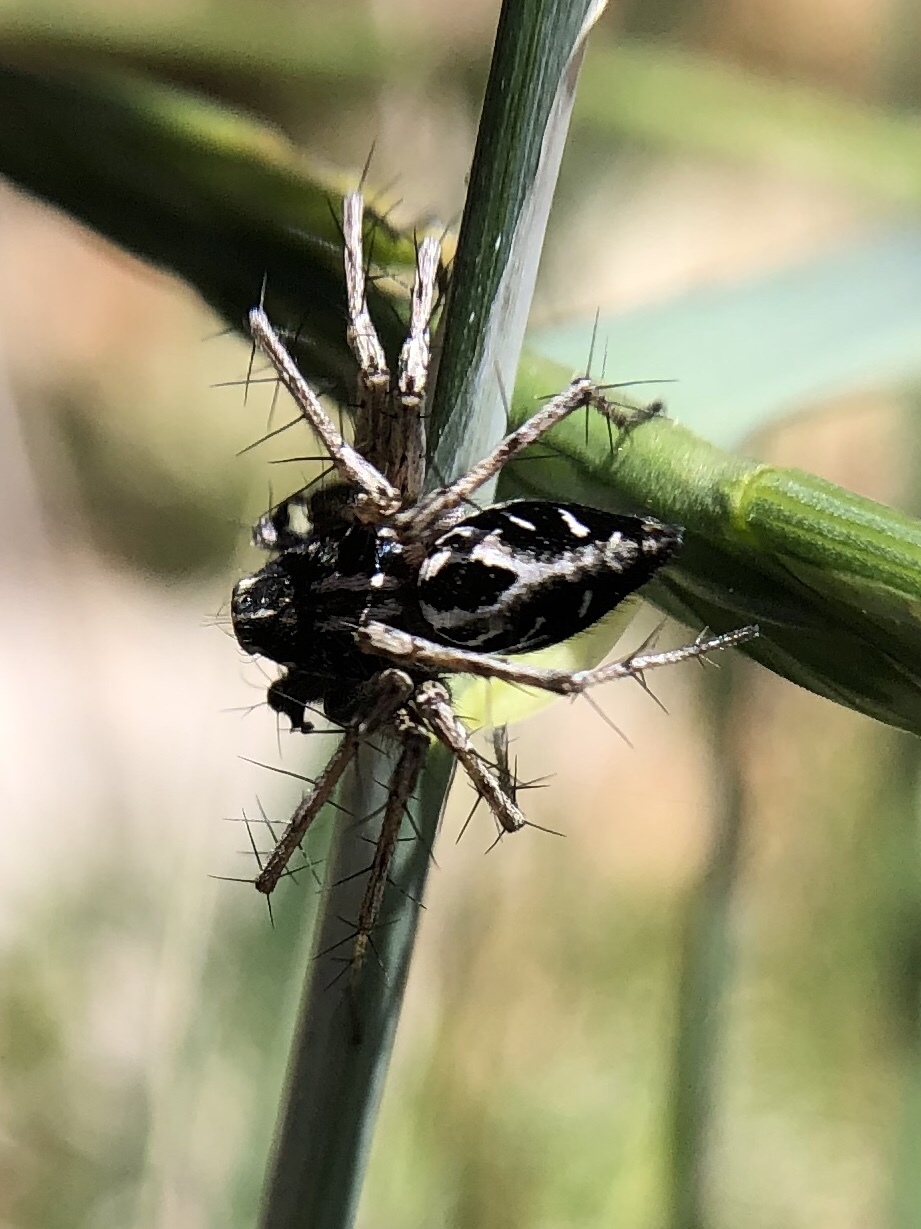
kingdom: Animalia
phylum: Arthropoda
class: Arachnida
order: Araneae
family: Oxyopidae
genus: Oxyopes
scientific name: Oxyopes heterophthalmus
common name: Lynx spider
